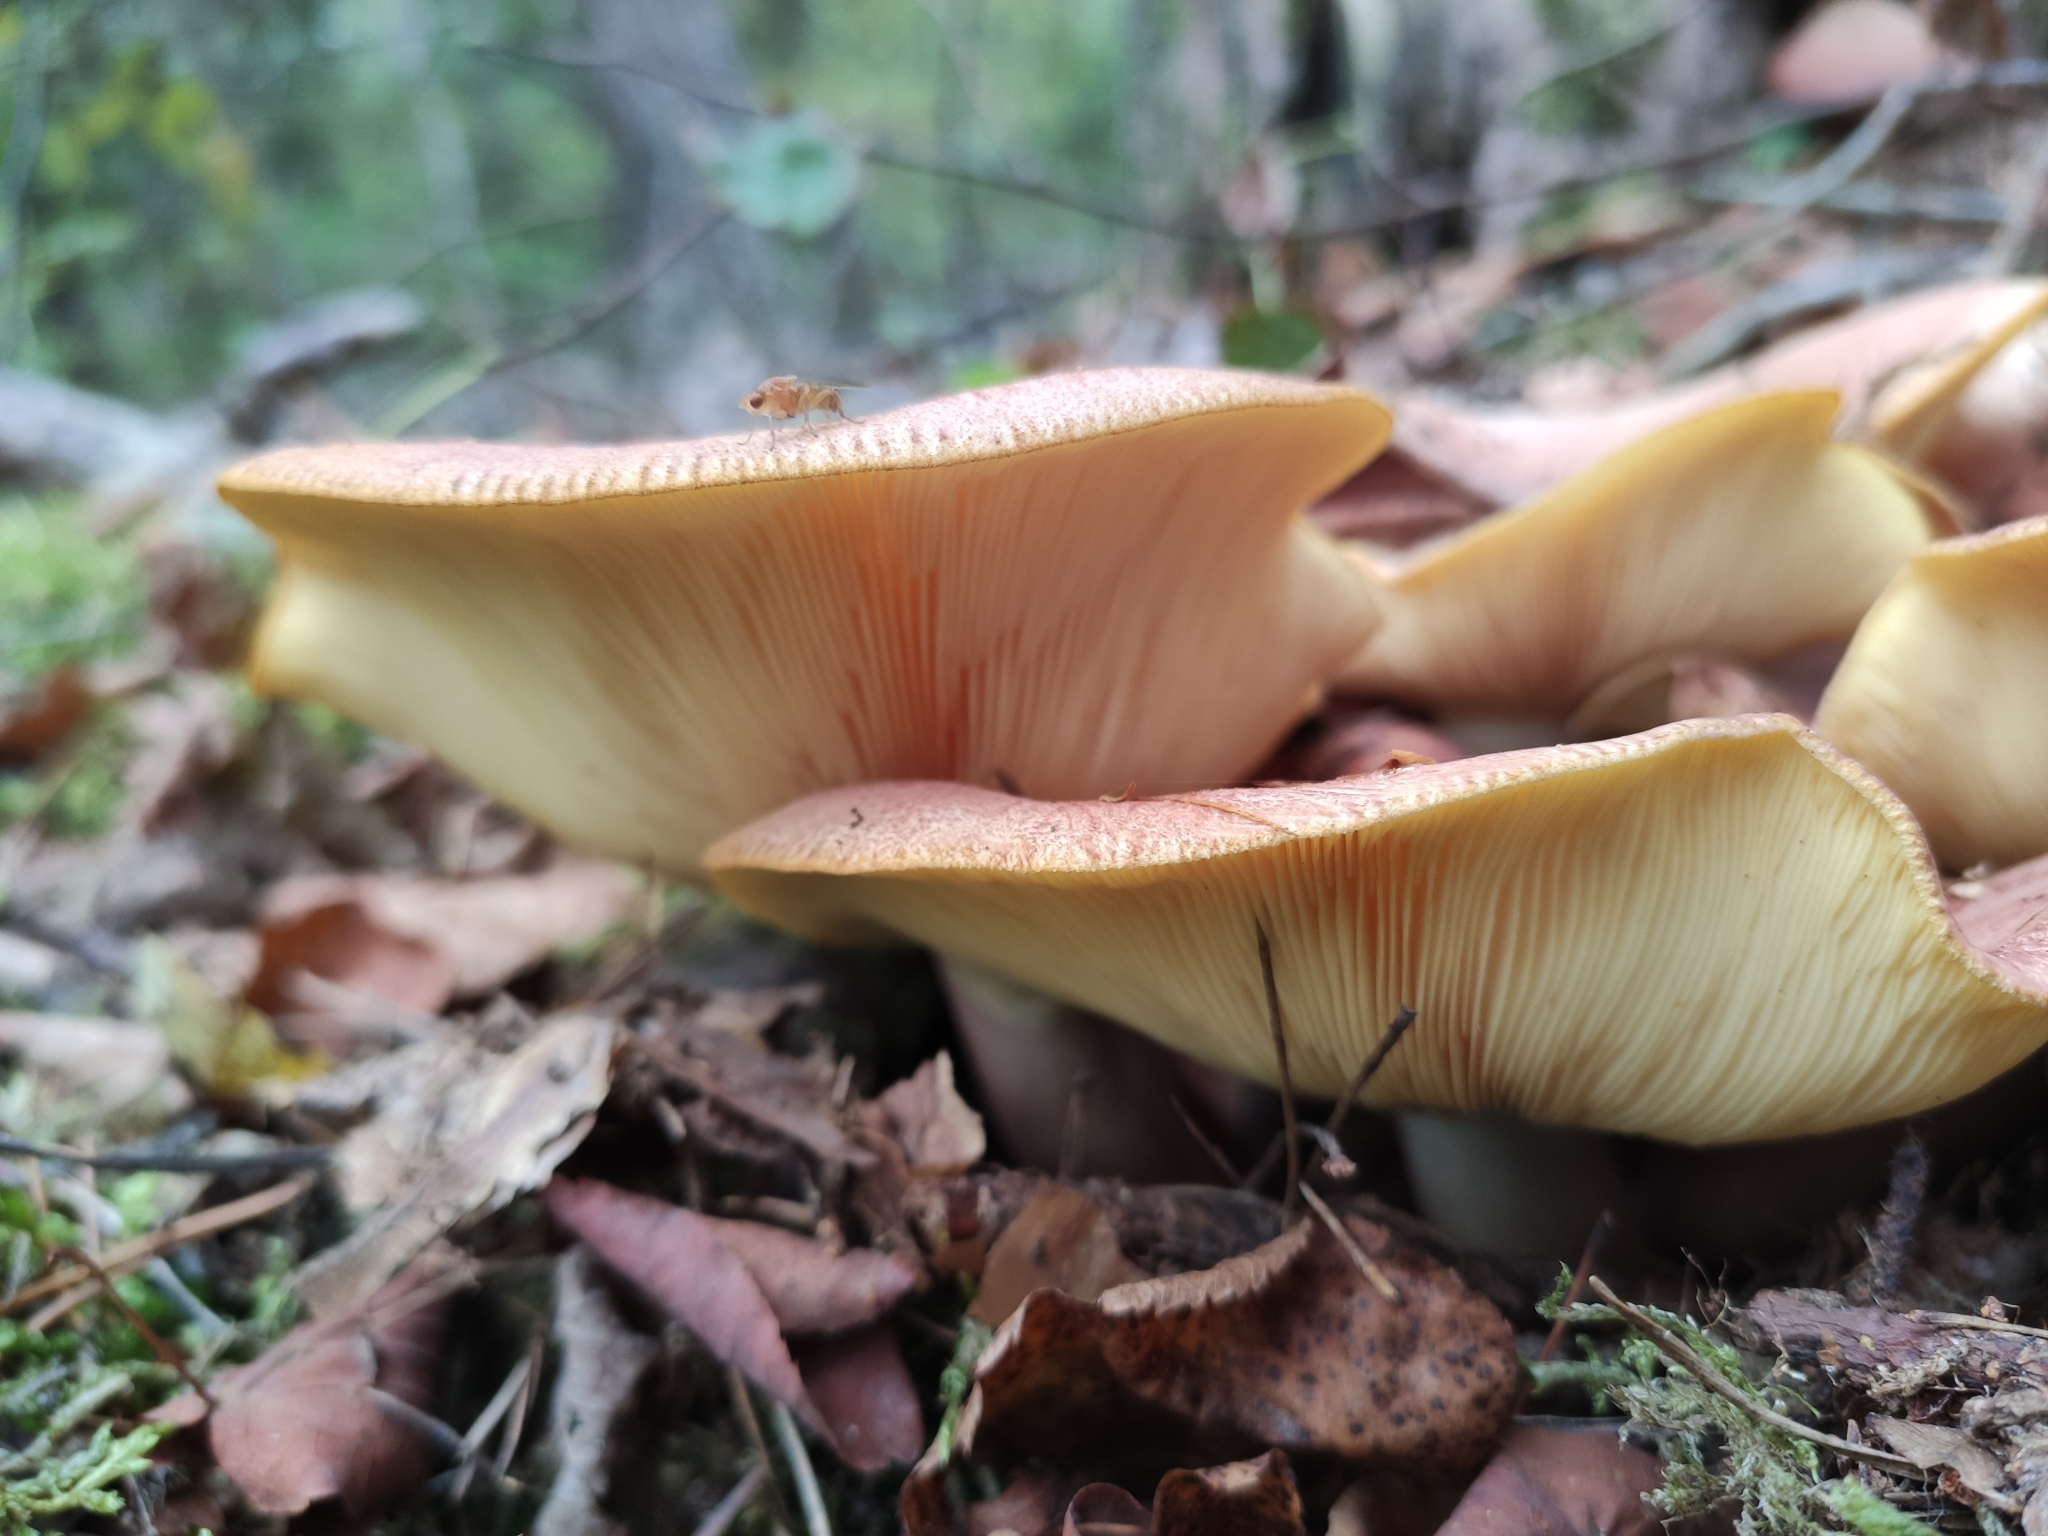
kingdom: Fungi
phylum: Basidiomycota
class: Agaricomycetes
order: Agaricales
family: Tricholomataceae
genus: Tricholomopsis
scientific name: Tricholomopsis rutilans
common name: Plums and custard
